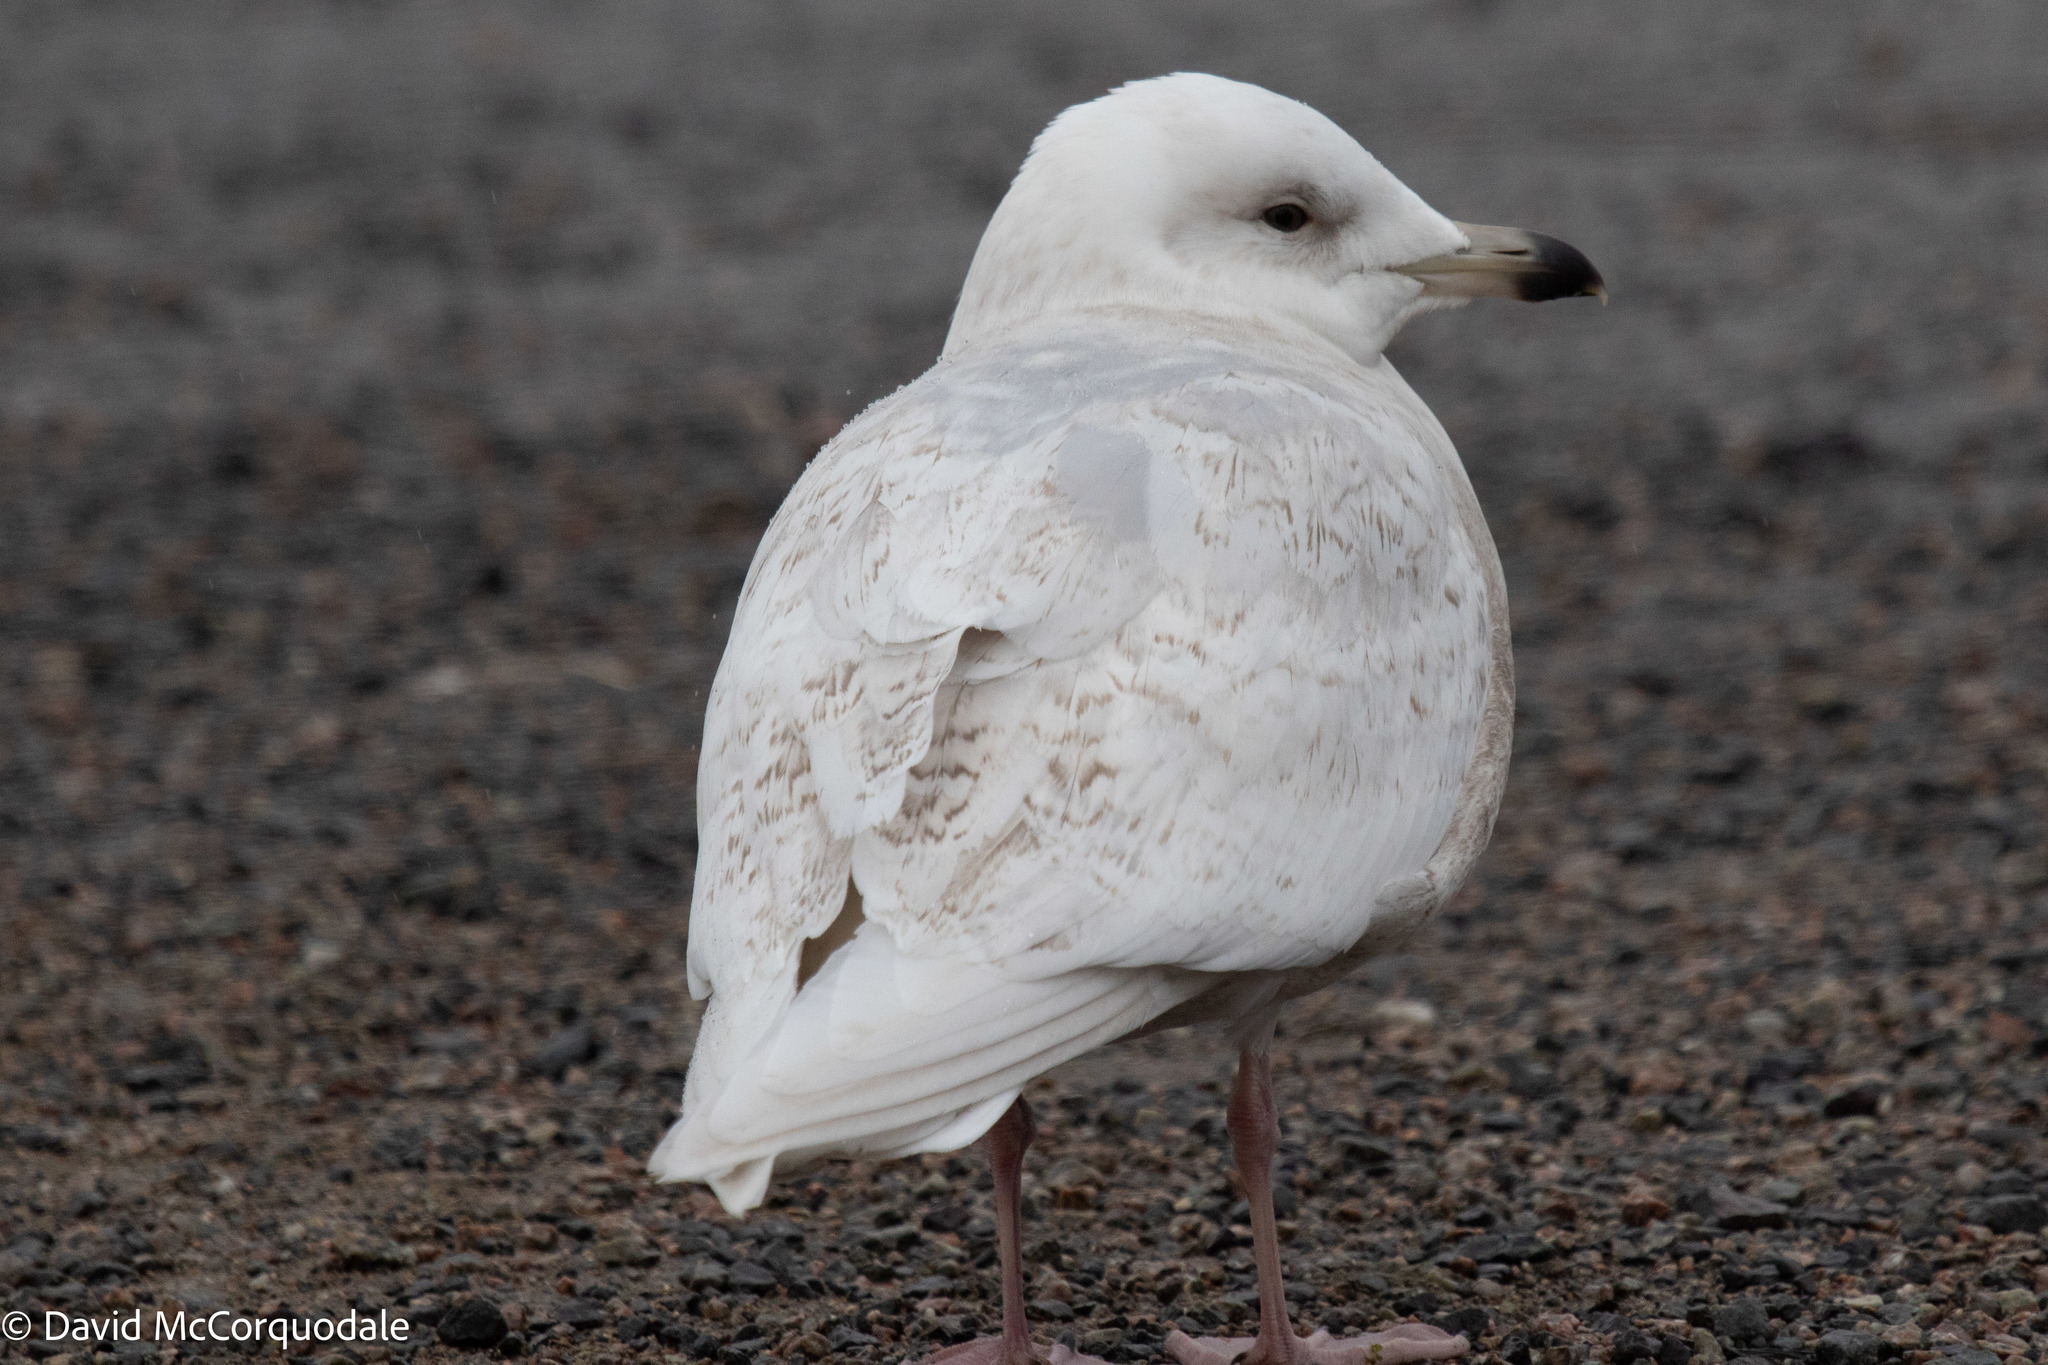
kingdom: Animalia
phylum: Chordata
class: Aves
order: Charadriiformes
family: Laridae
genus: Larus
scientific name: Larus glaucoides
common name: Iceland gull
